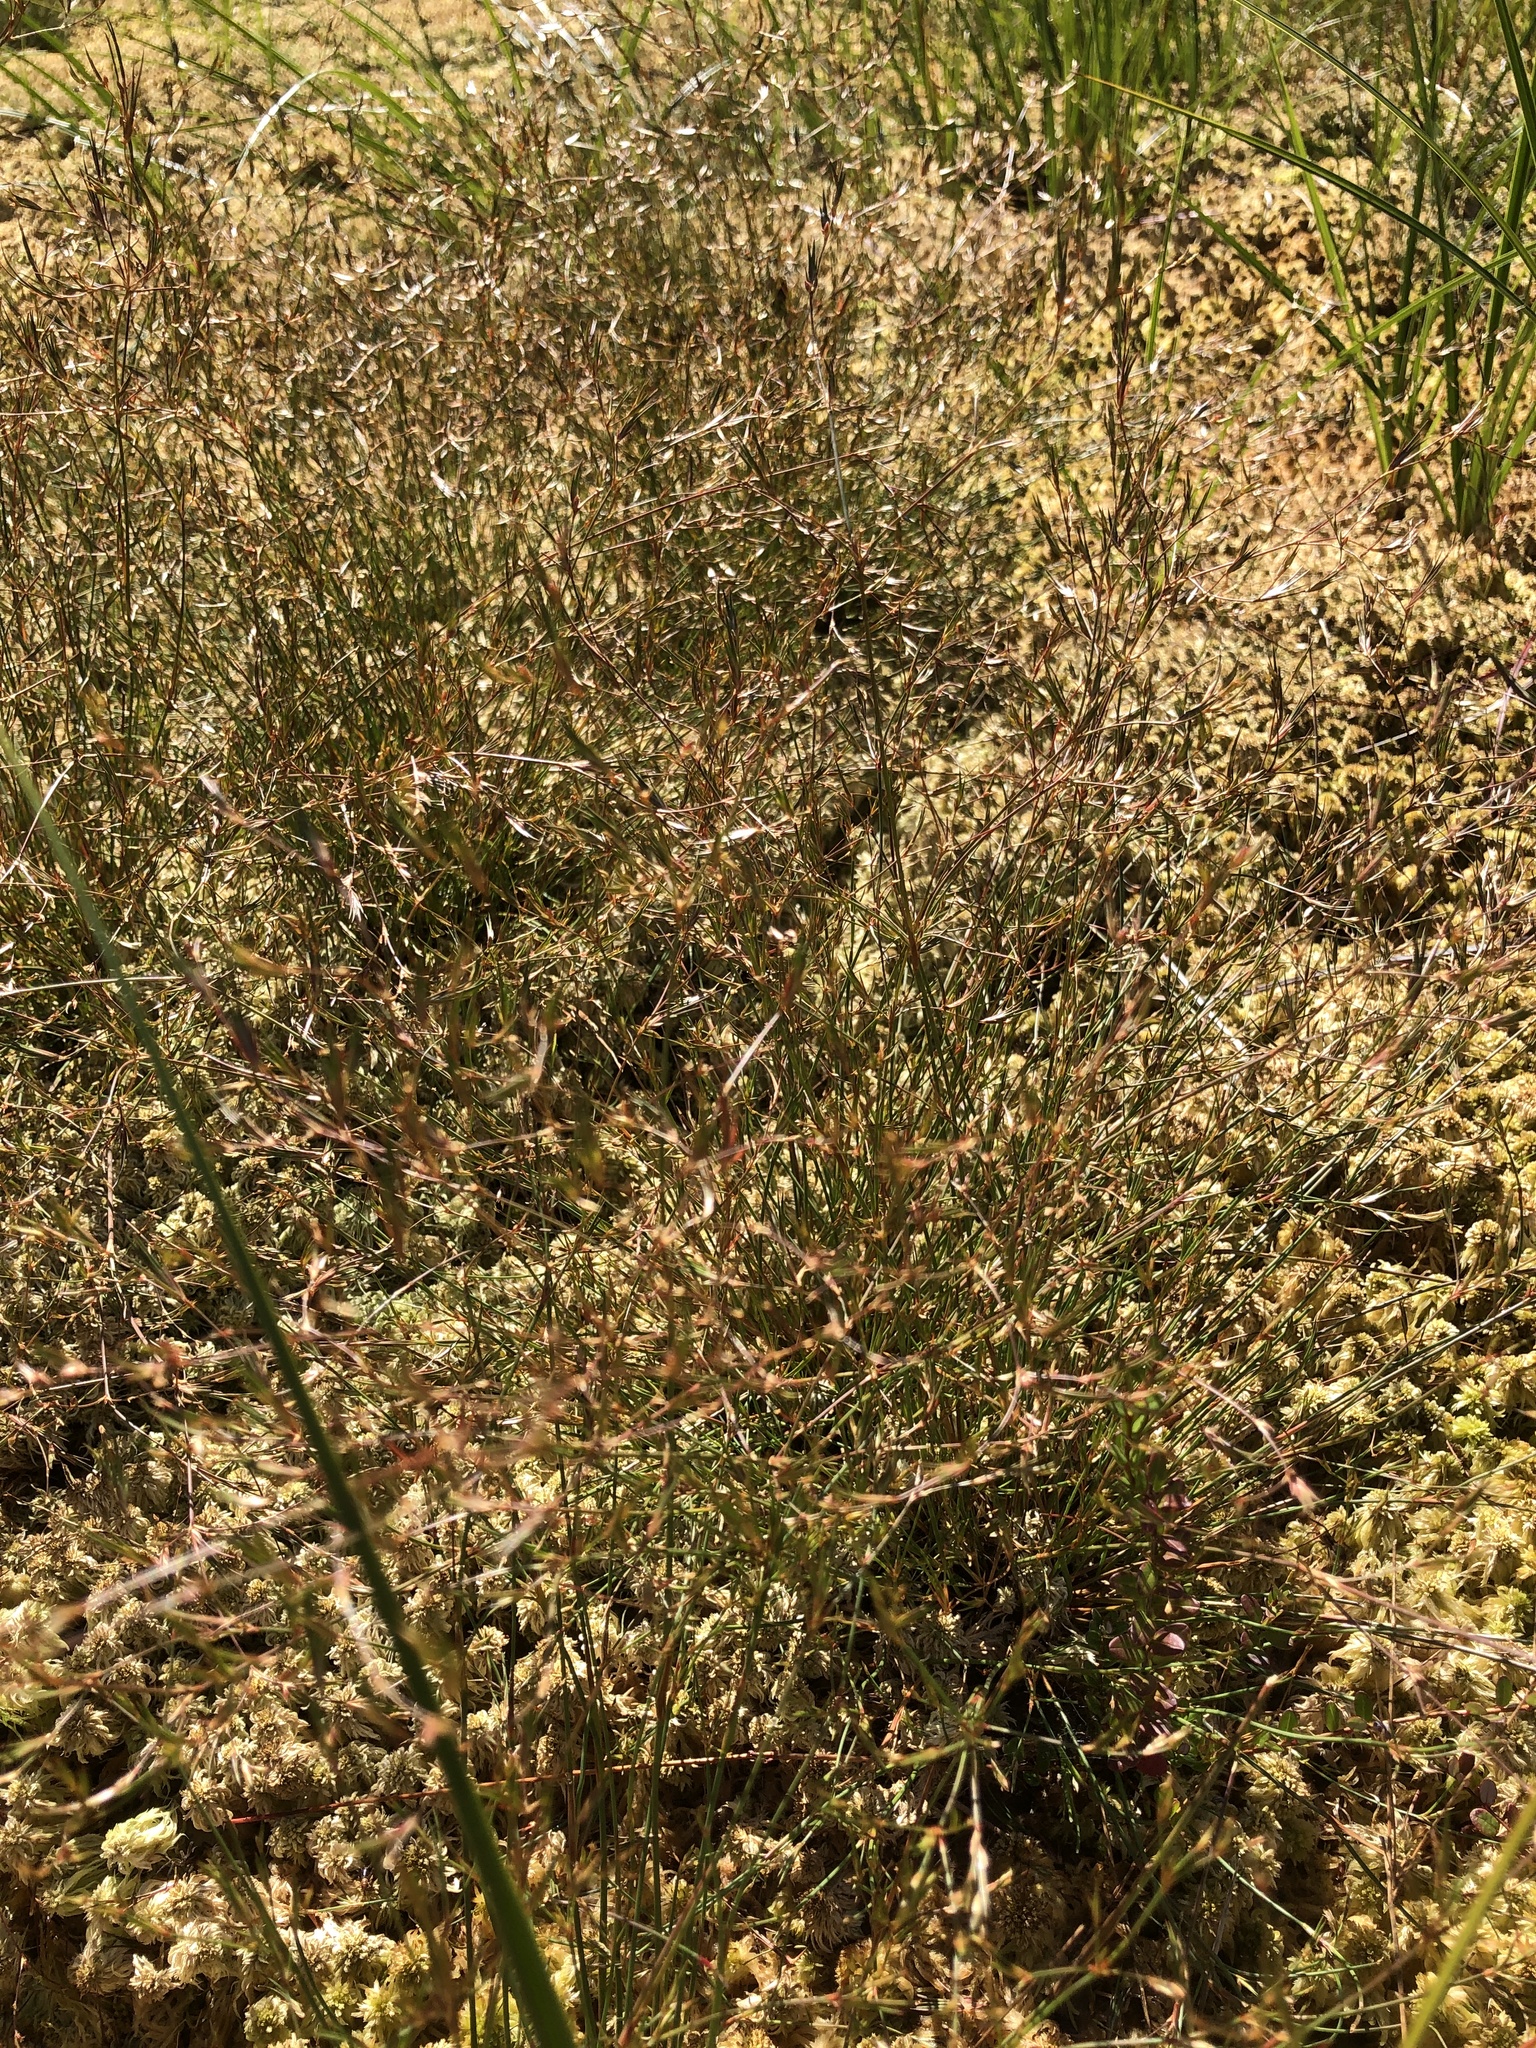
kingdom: Plantae
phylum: Tracheophyta
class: Liliopsida
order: Poales
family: Juncaceae
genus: Juncus
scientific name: Juncus pelocarpus
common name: Brown-fruited rush
